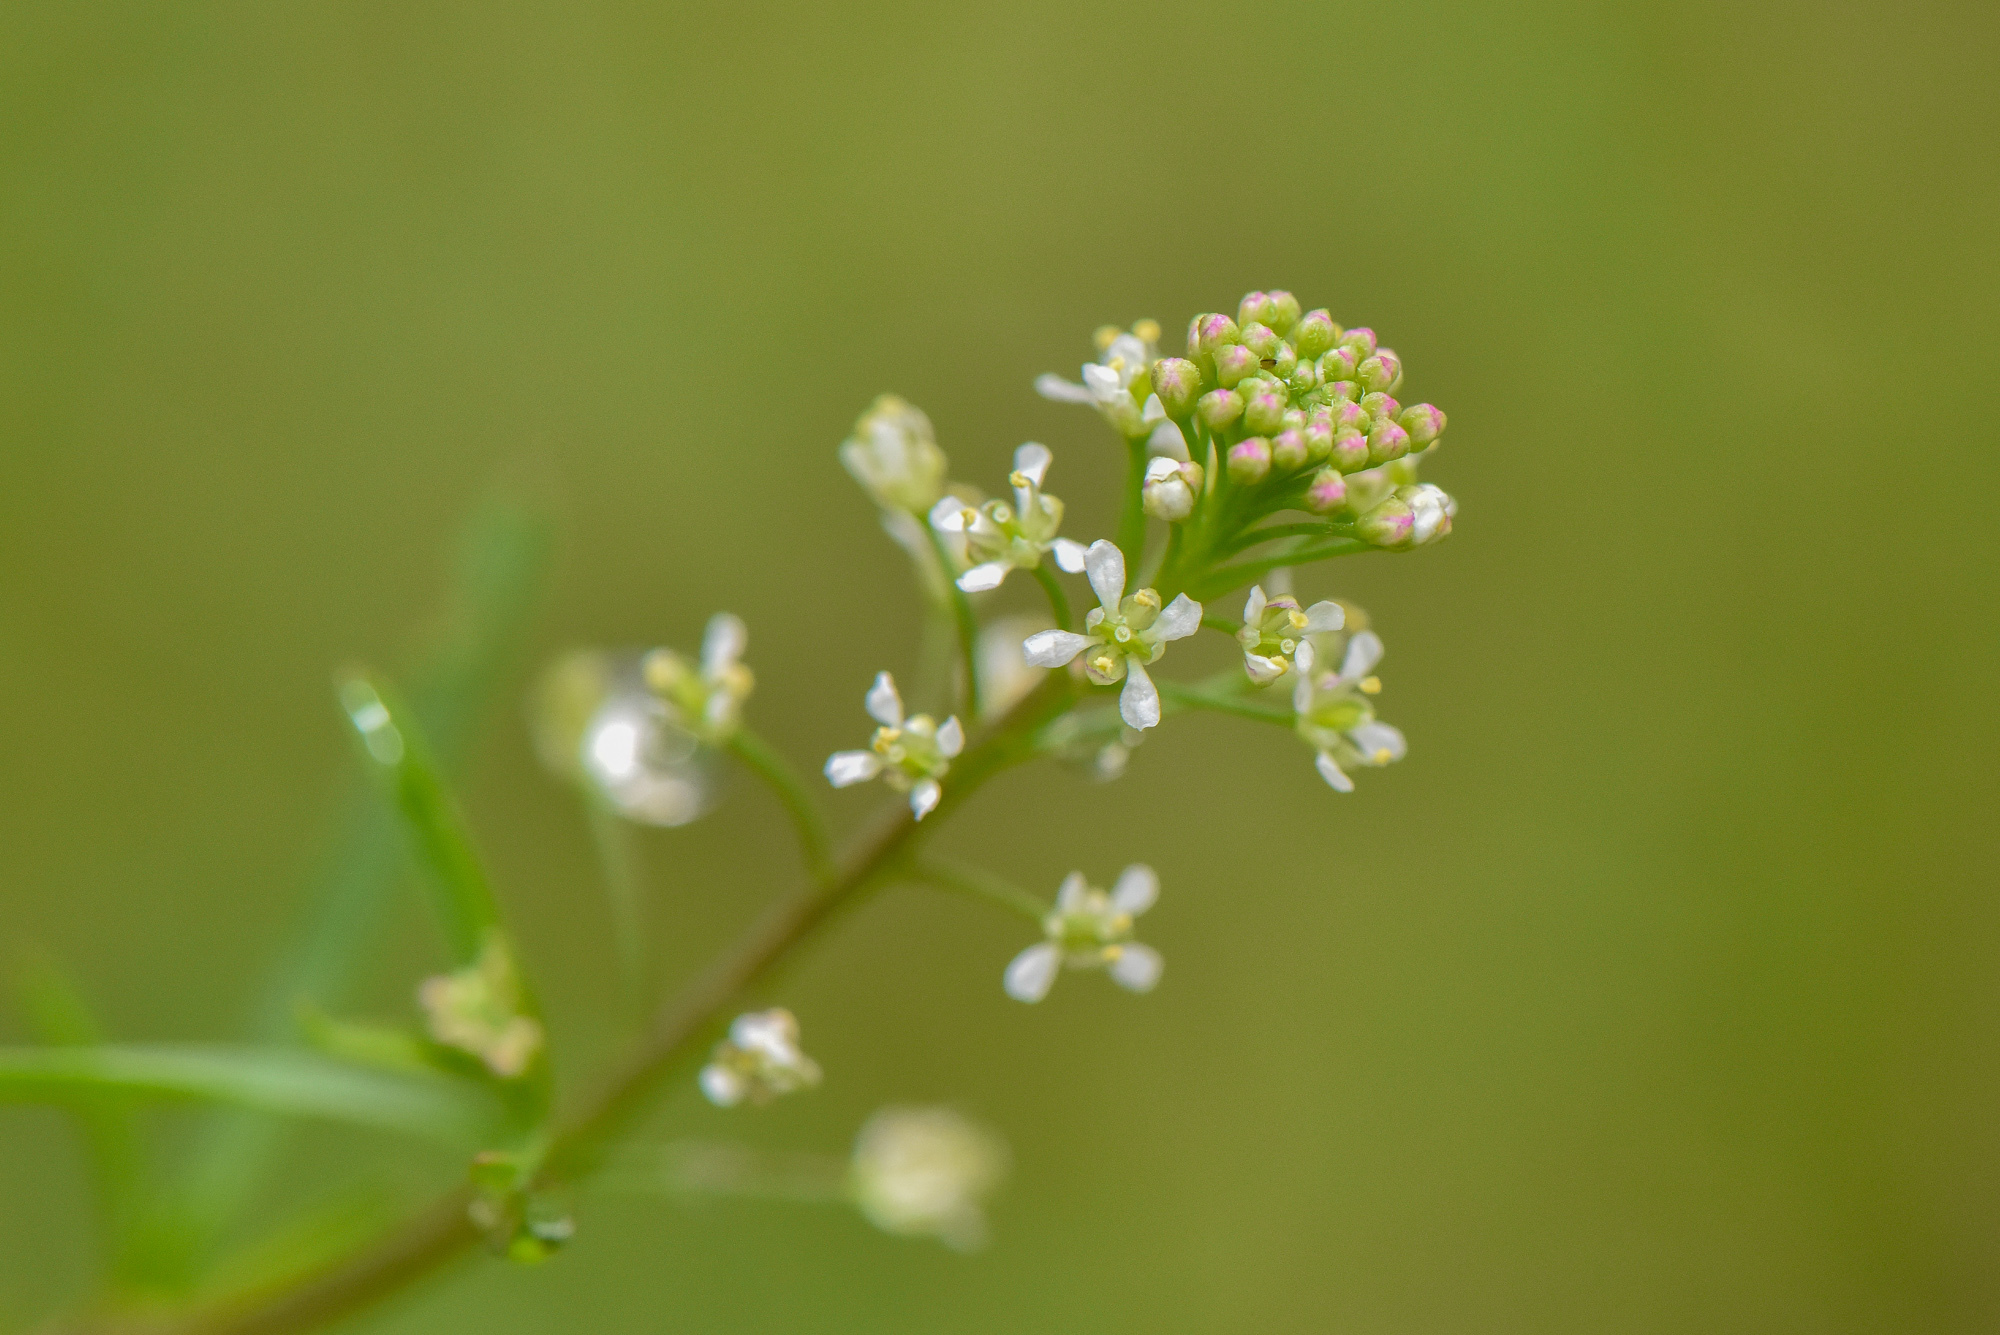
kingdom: Plantae
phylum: Tracheophyta
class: Magnoliopsida
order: Brassicales
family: Brassicaceae
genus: Lepidium
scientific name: Lepidium virginicum
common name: Least pepperwort
